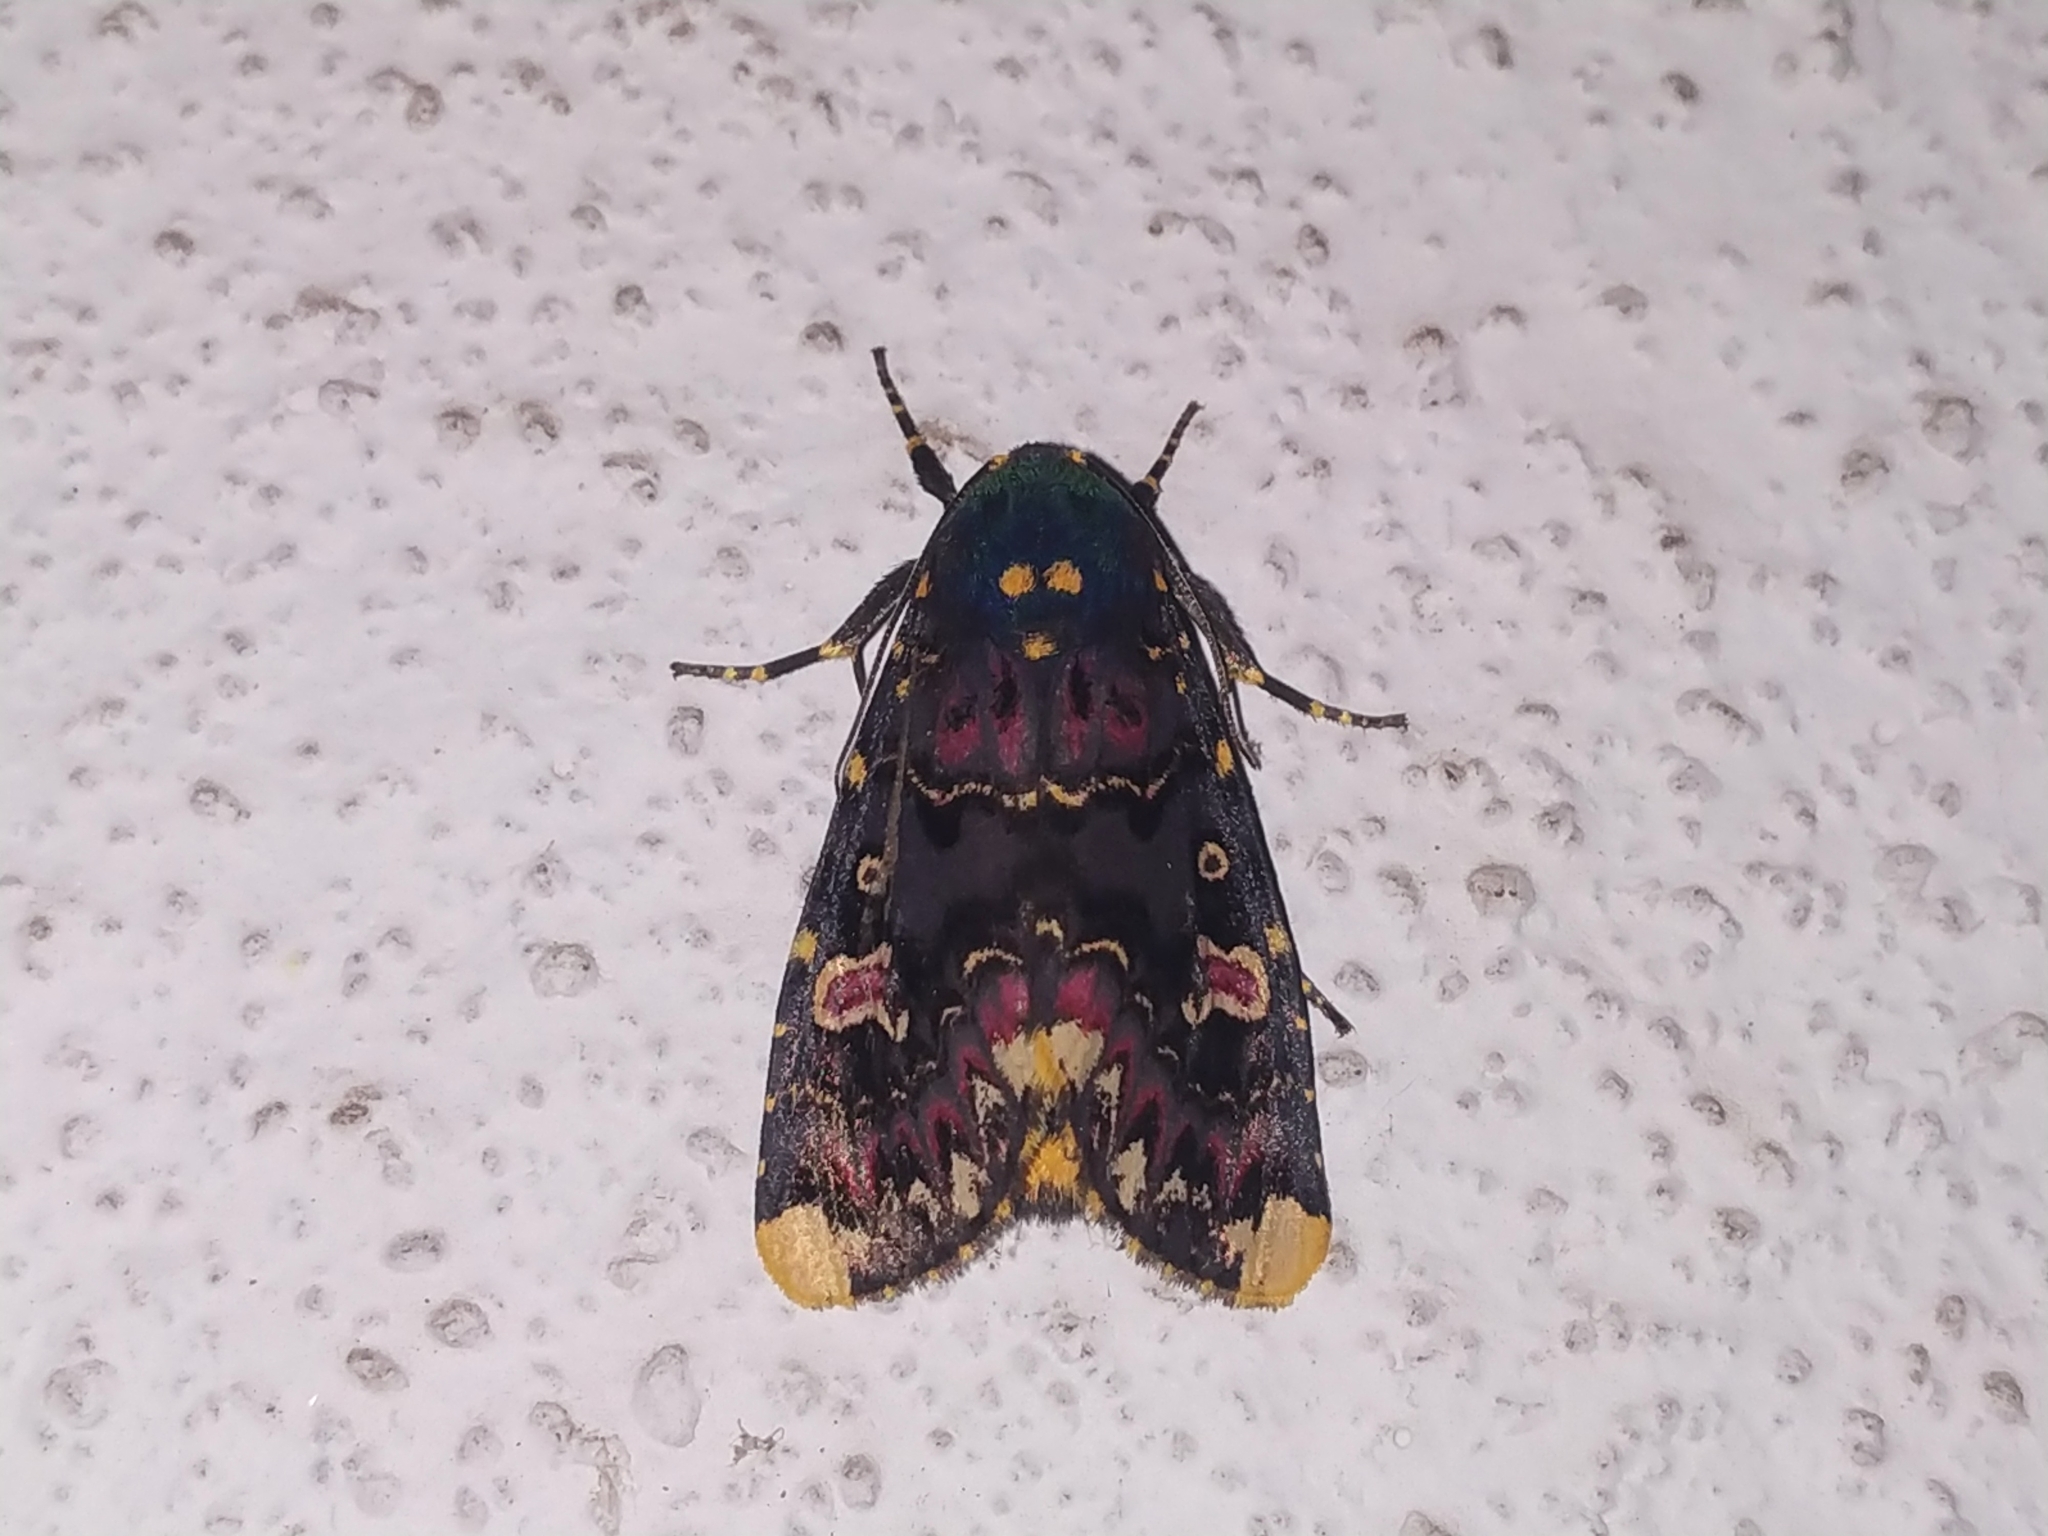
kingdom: Animalia
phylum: Arthropoda
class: Insecta
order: Lepidoptera
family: Noctuidae
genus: Polytela
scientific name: Polytela gloriosae
